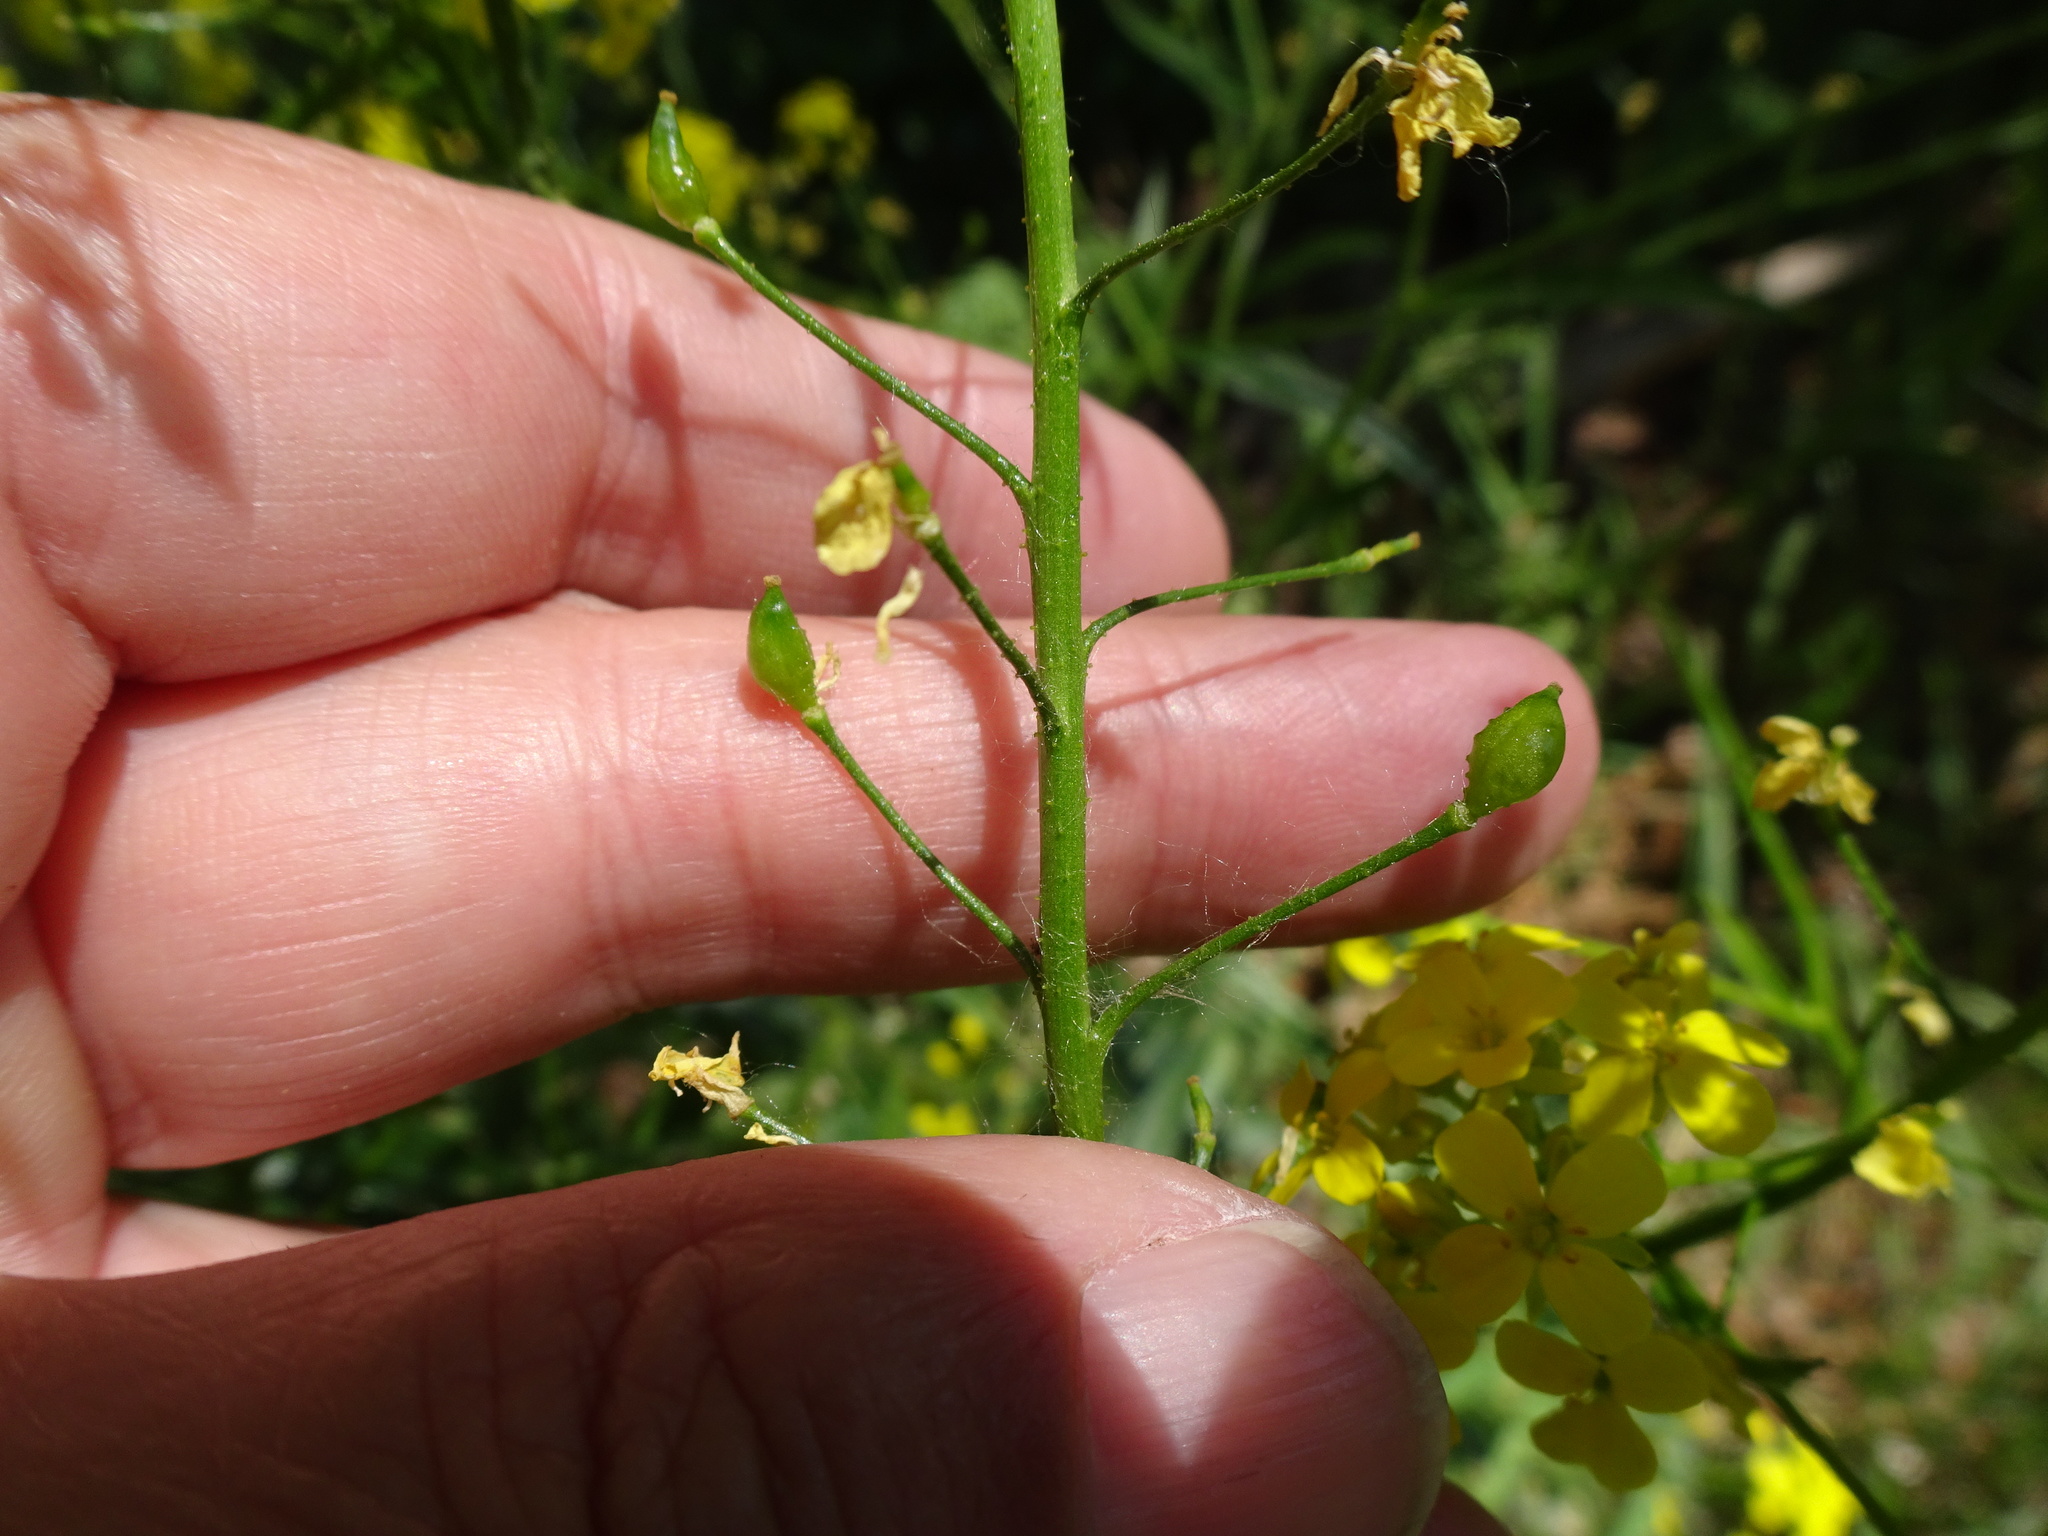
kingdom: Plantae
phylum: Tracheophyta
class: Magnoliopsida
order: Brassicales
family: Brassicaceae
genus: Bunias
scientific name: Bunias orientalis
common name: Warty-cabbage
